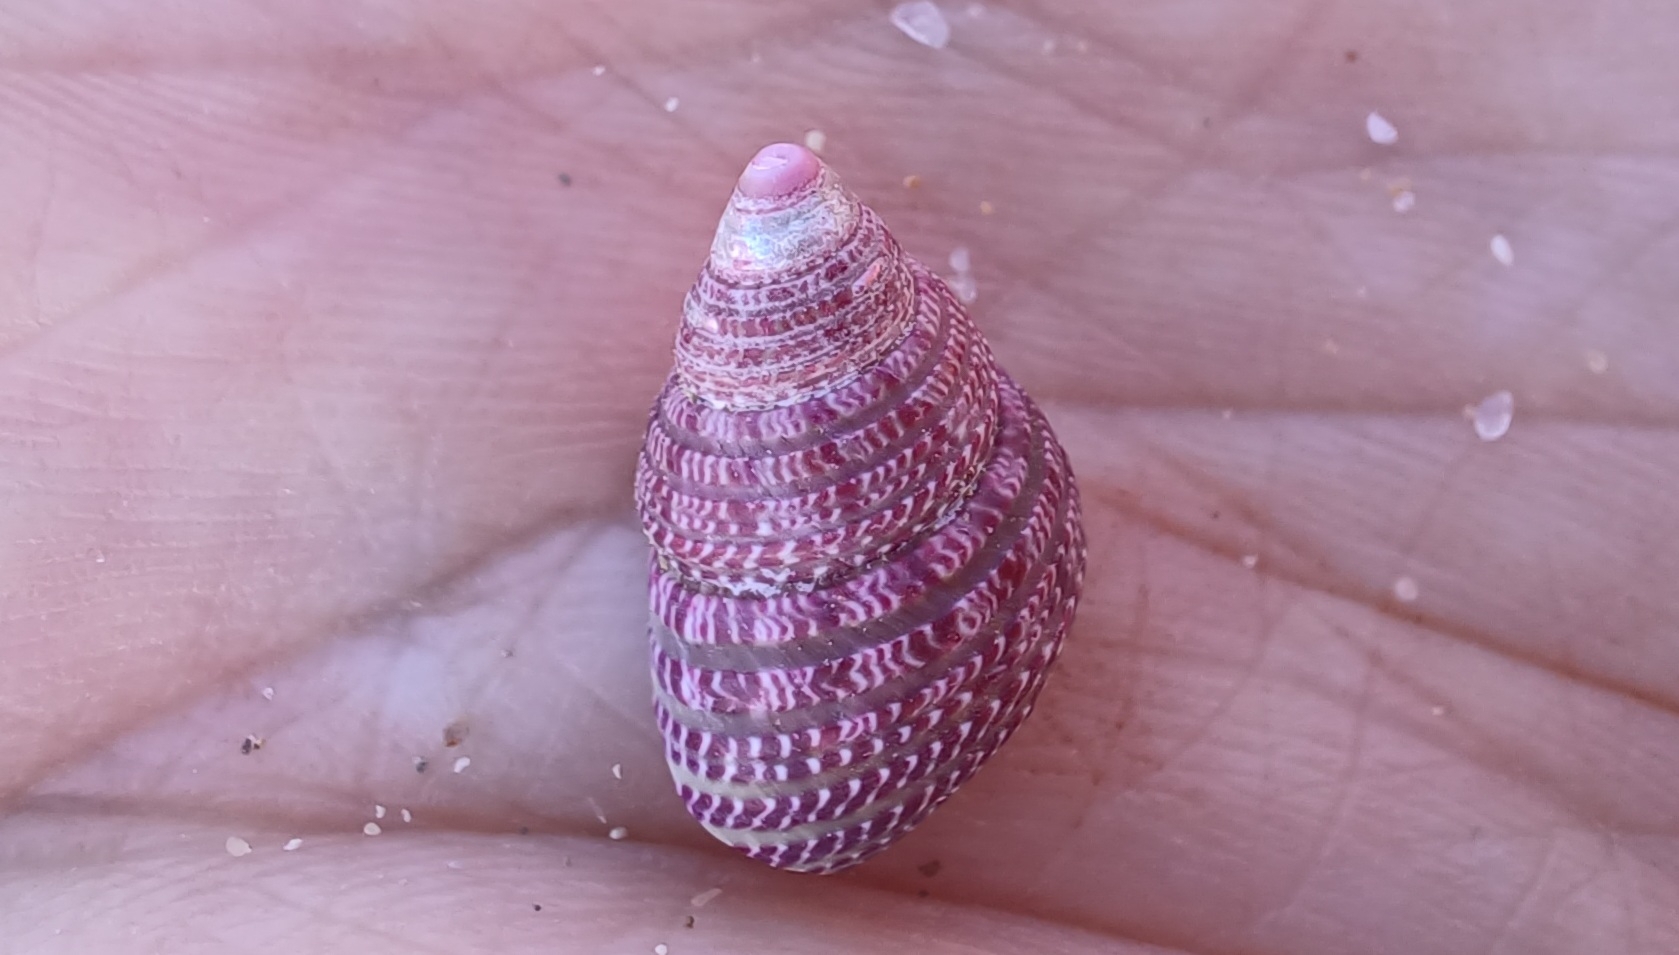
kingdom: Animalia
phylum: Mollusca
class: Gastropoda
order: Trochida
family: Trochidae
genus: Prothalotia
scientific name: Prothalotia pulcherrima
